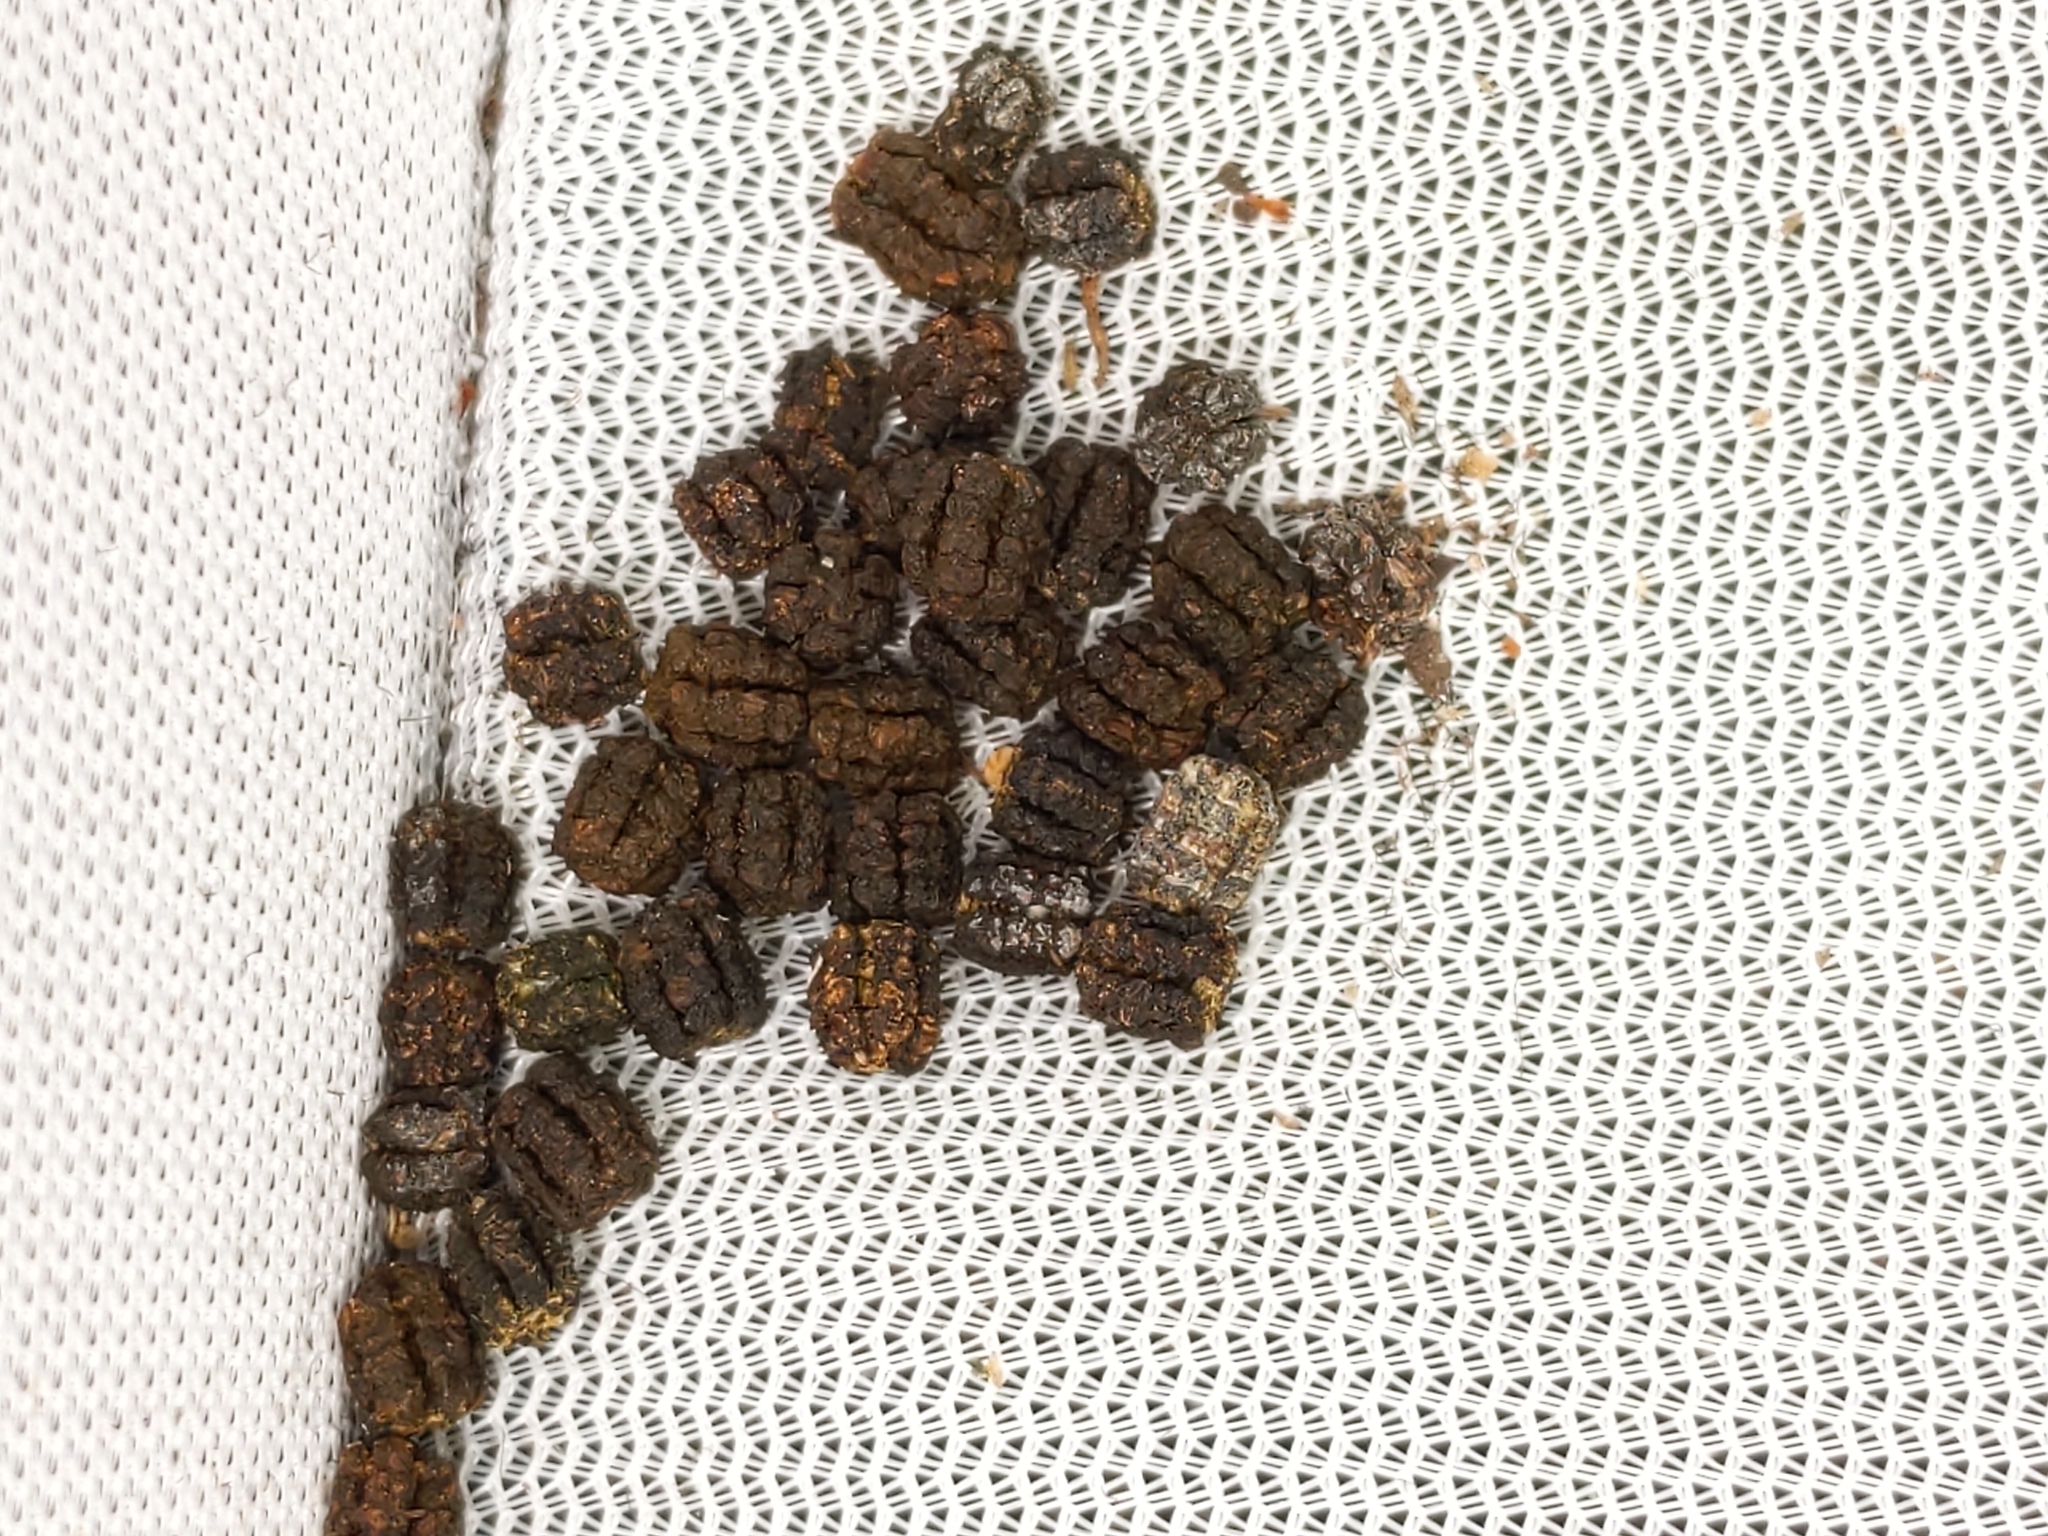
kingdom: Animalia
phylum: Arthropoda
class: Insecta
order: Lepidoptera
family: Sphingidae
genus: Darapsa
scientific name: Darapsa myron
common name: Hog sphinx
